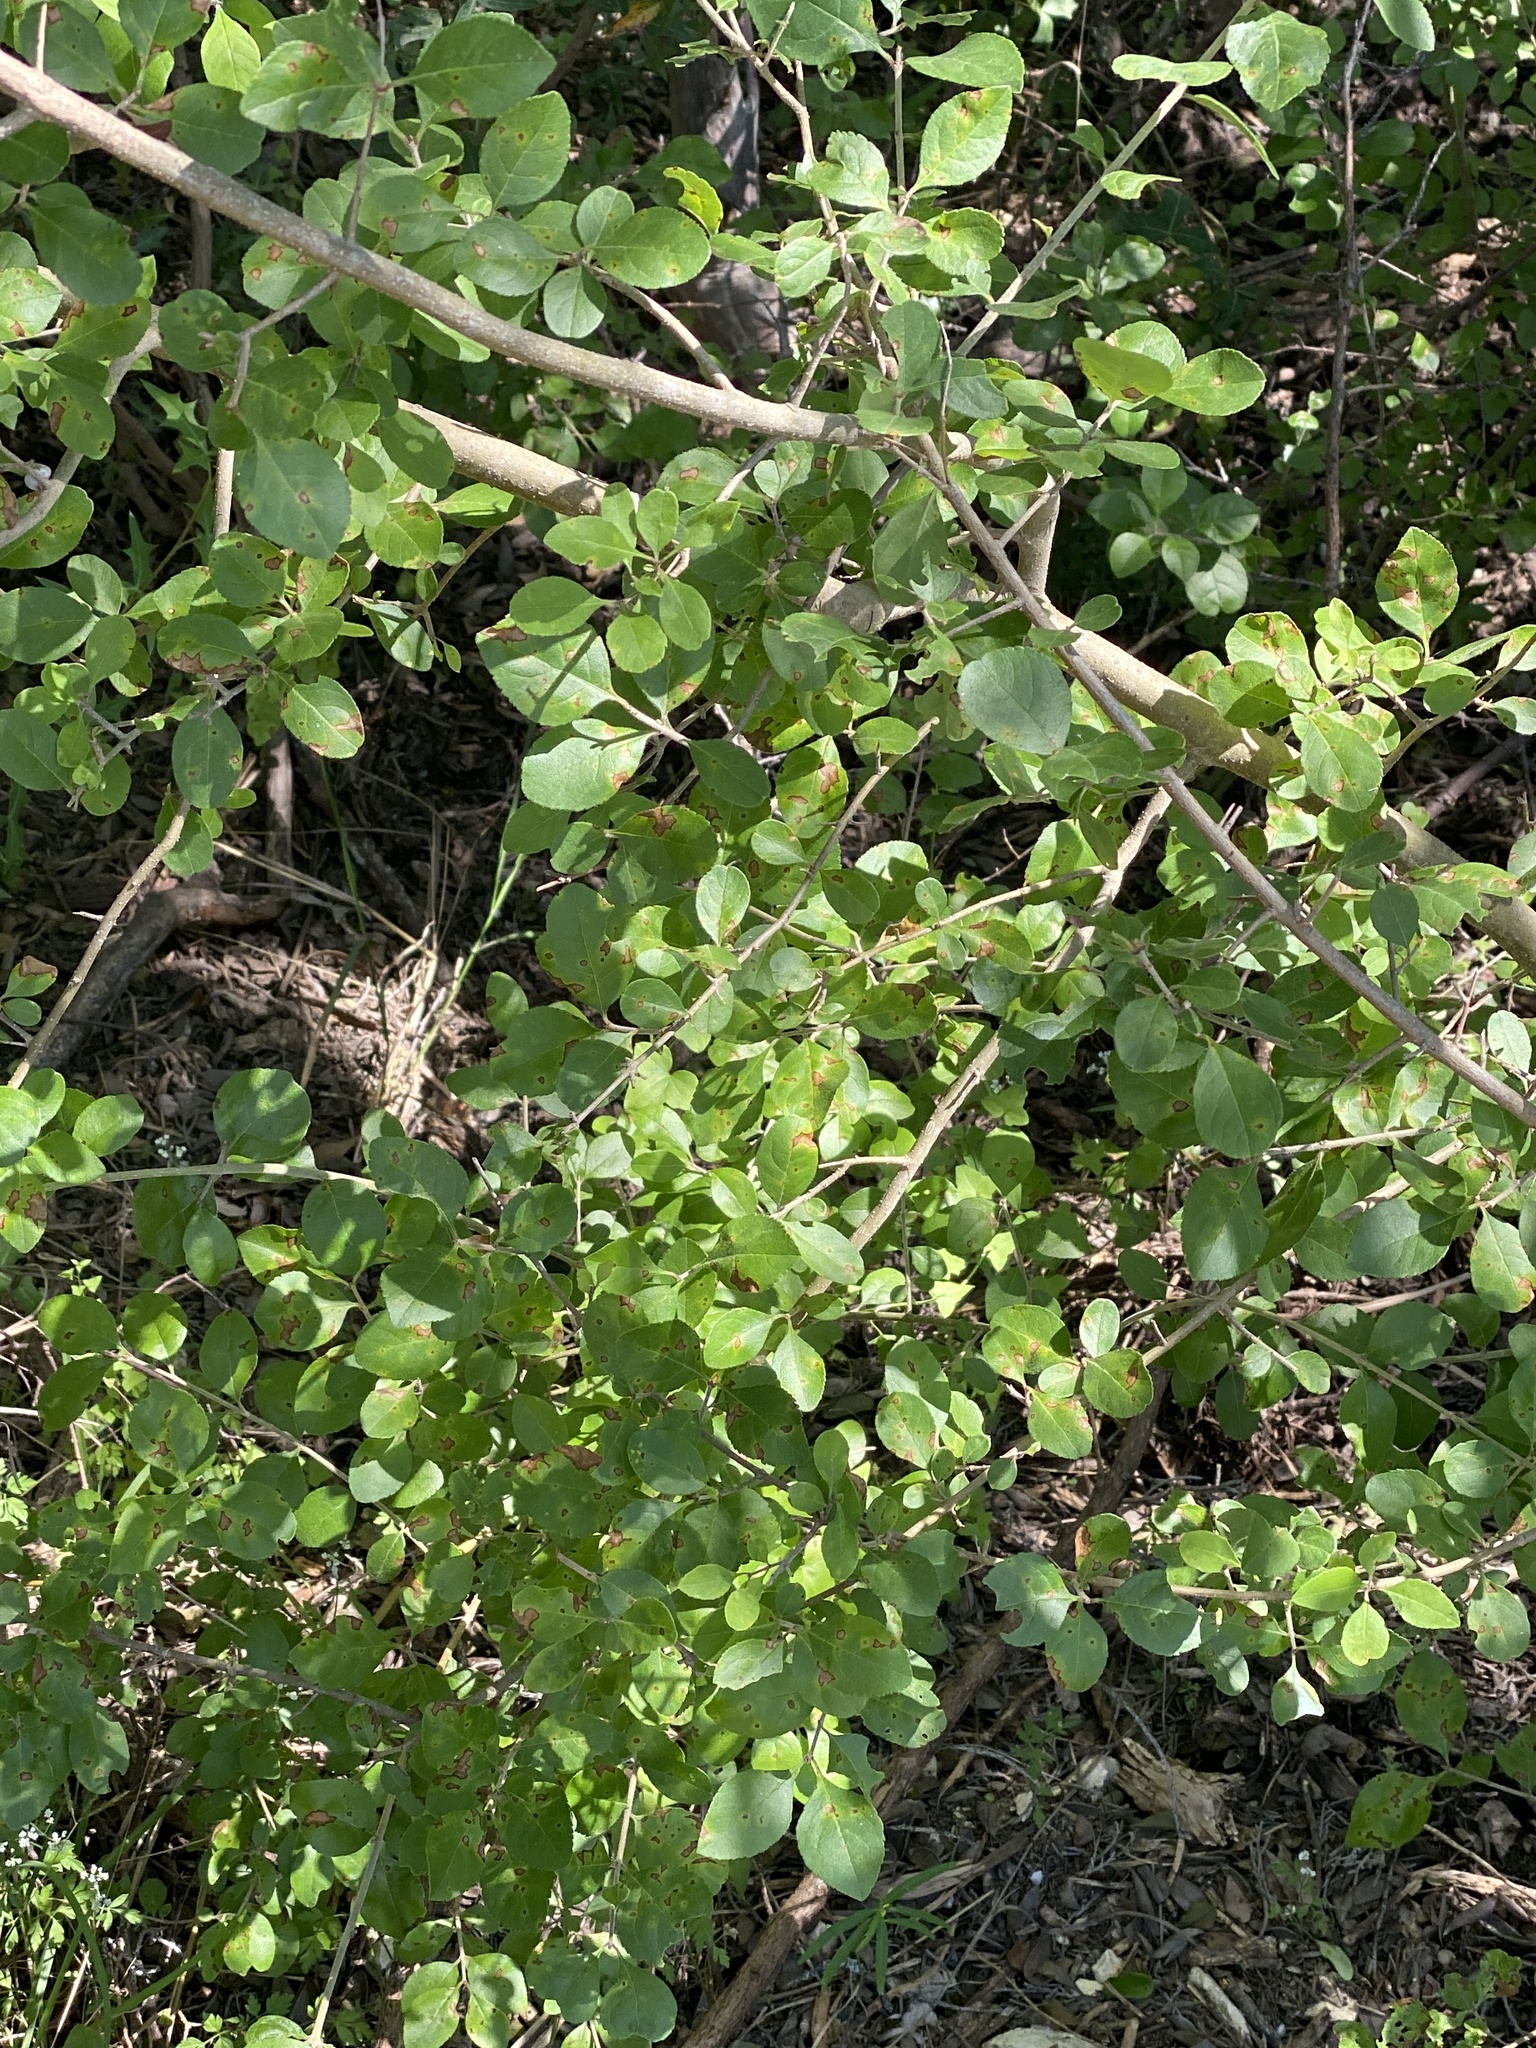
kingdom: Plantae
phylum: Tracheophyta
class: Magnoliopsida
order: Lamiales
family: Oleaceae
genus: Forestiera
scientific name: Forestiera pubescens
